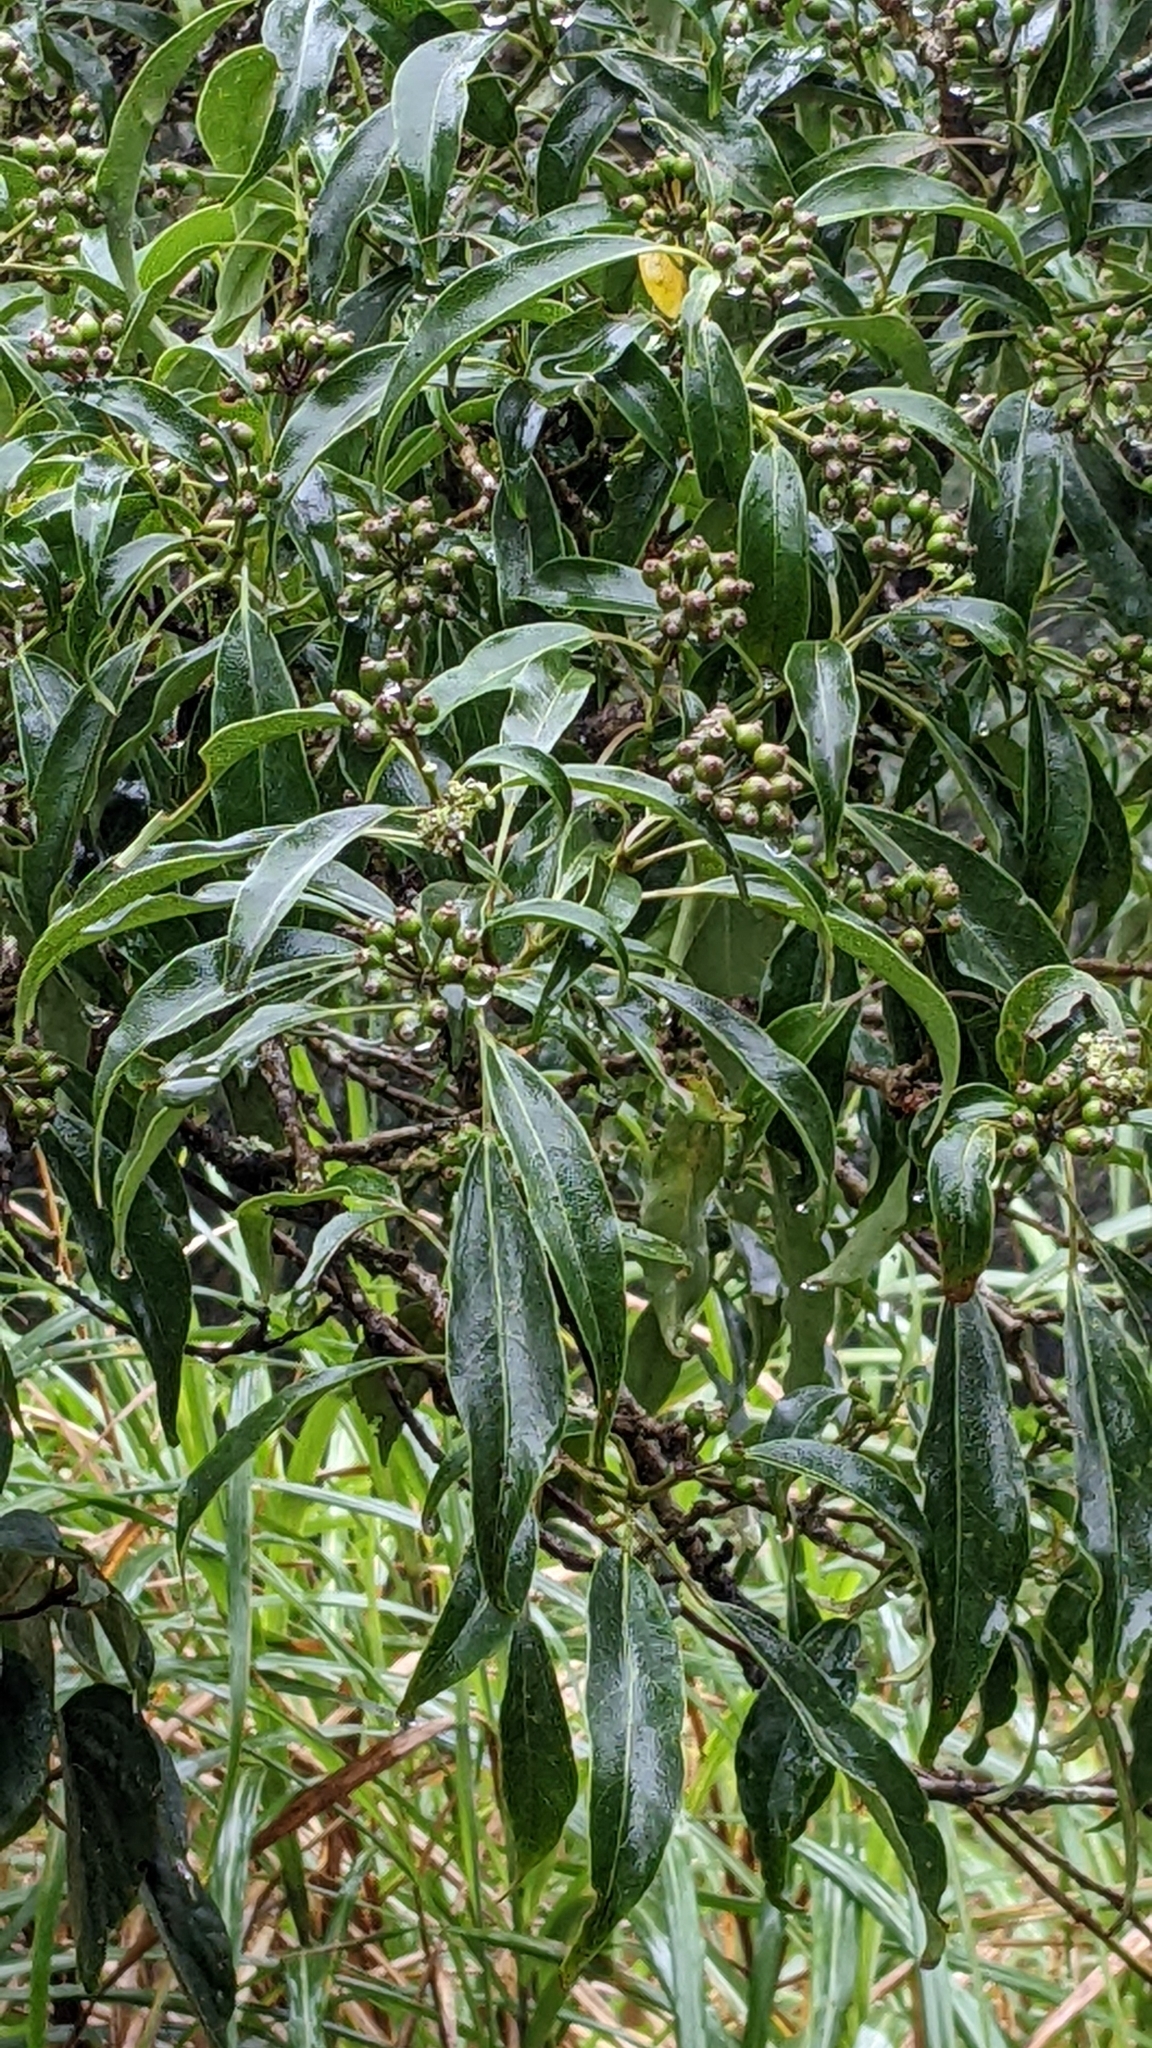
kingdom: Plantae
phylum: Tracheophyta
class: Magnoliopsida
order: Apiales
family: Araliaceae
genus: Dendropanax
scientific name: Dendropanax dentiger
